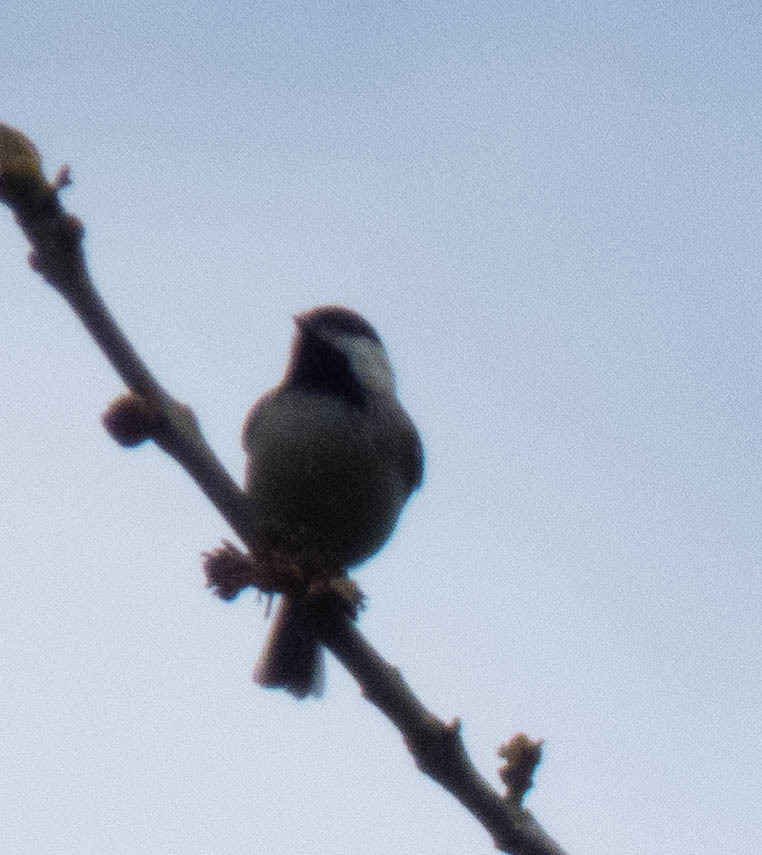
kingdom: Animalia
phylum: Chordata
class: Aves
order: Passeriformes
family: Paridae
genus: Poecile
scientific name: Poecile carolinensis
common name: Carolina chickadee
